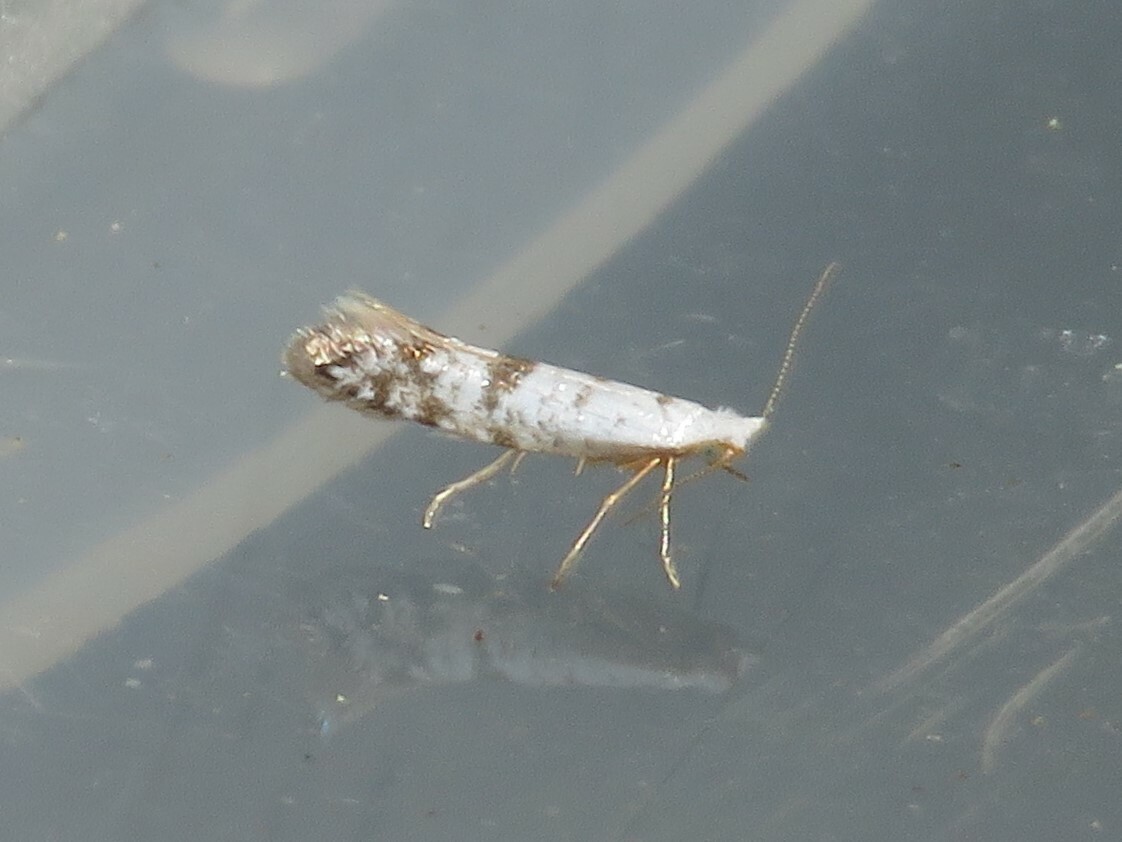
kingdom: Animalia
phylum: Arthropoda
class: Insecta
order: Lepidoptera
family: Argyresthiidae
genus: Argyresthia
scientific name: Argyresthia thuiella
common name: Arborvitae leafminer
